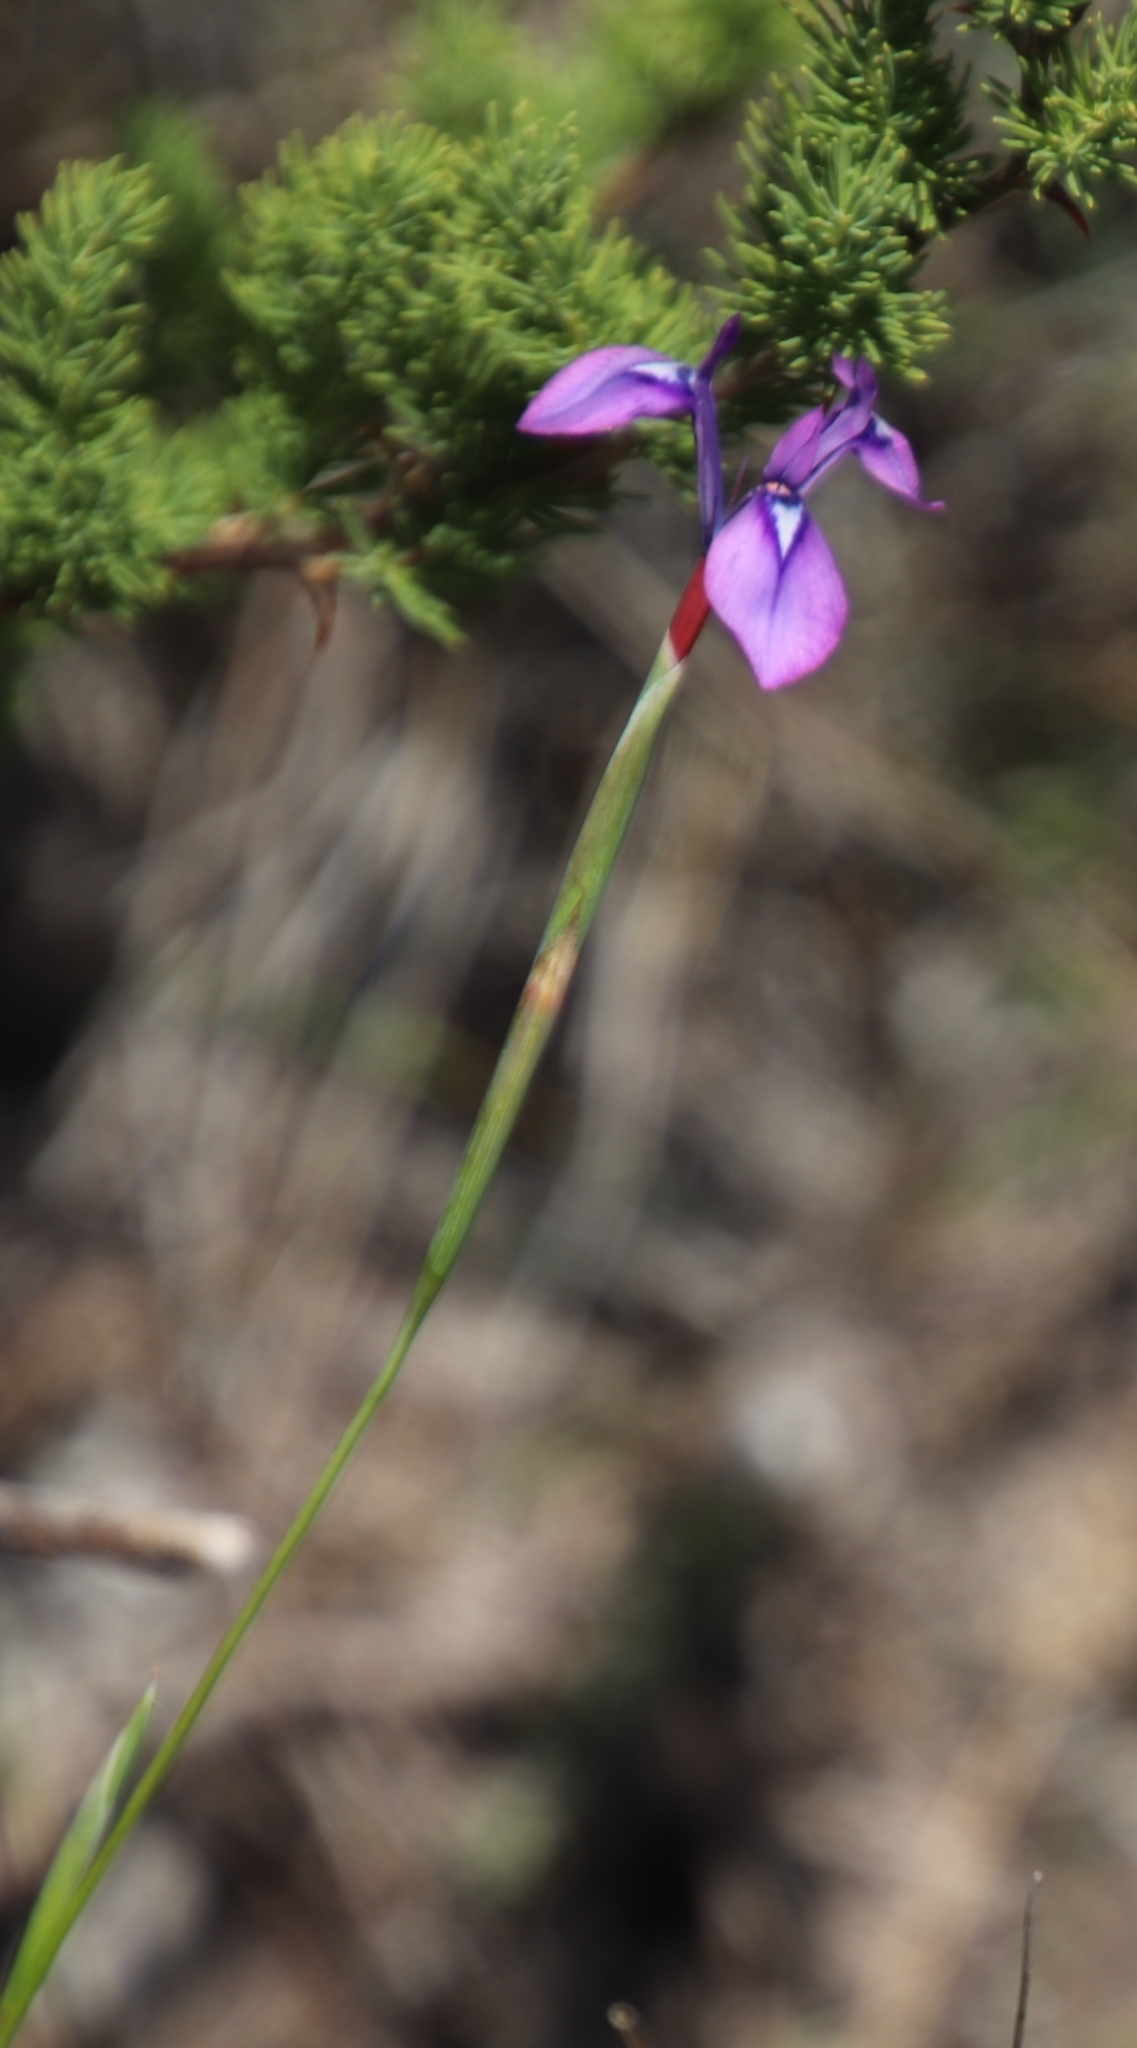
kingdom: Plantae
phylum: Tracheophyta
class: Liliopsida
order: Asparagales
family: Iridaceae
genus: Moraea
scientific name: Moraea tripetala
